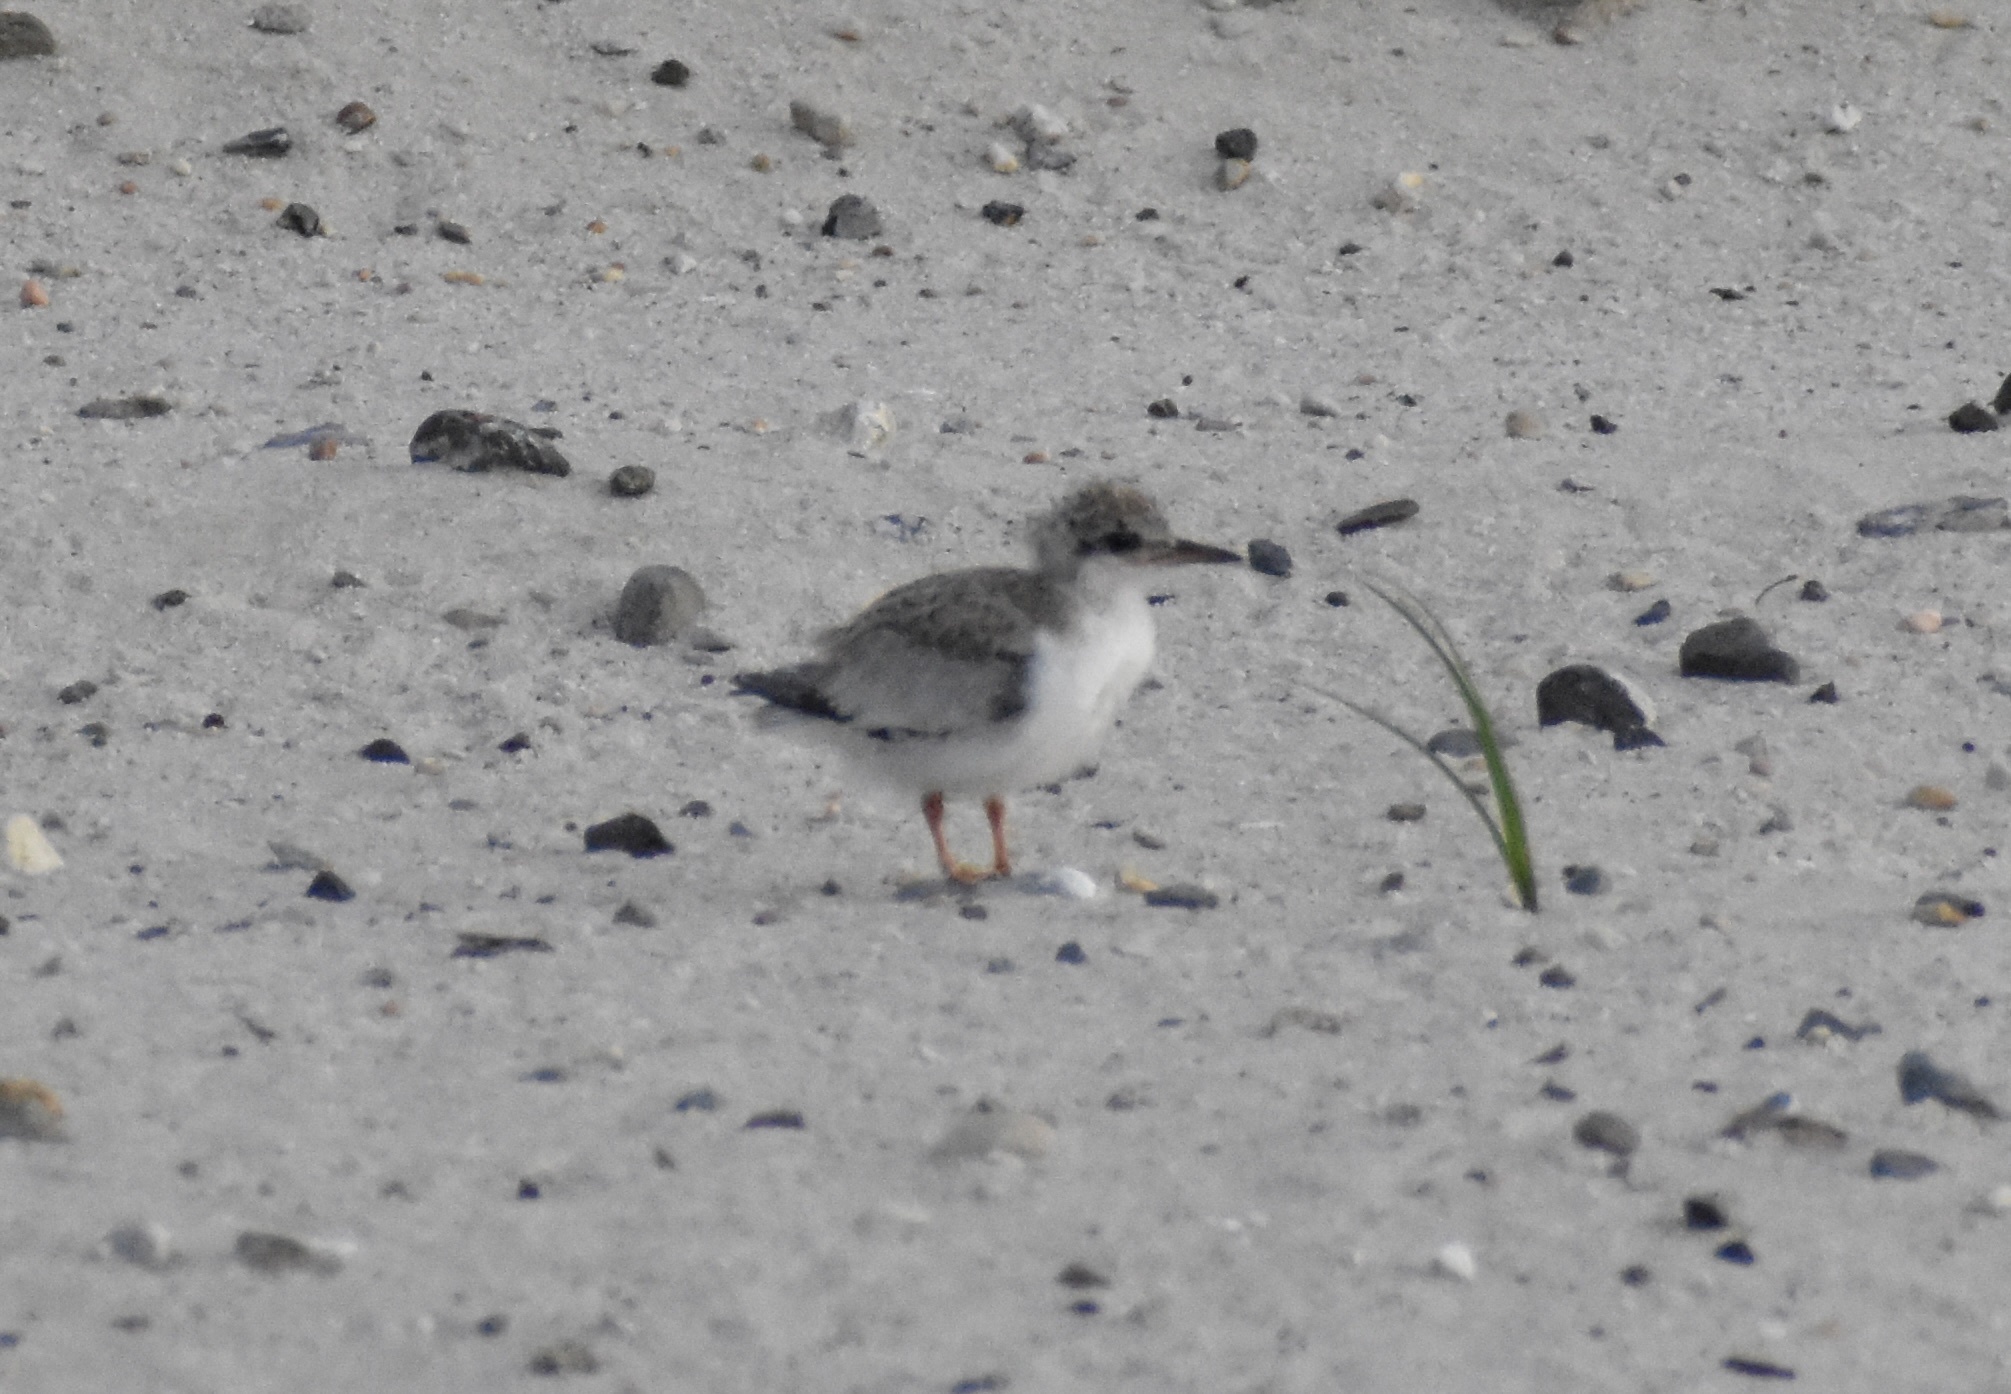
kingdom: Animalia
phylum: Chordata
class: Aves
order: Charadriiformes
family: Laridae
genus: Sternula
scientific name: Sternula antillarum
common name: Least tern
